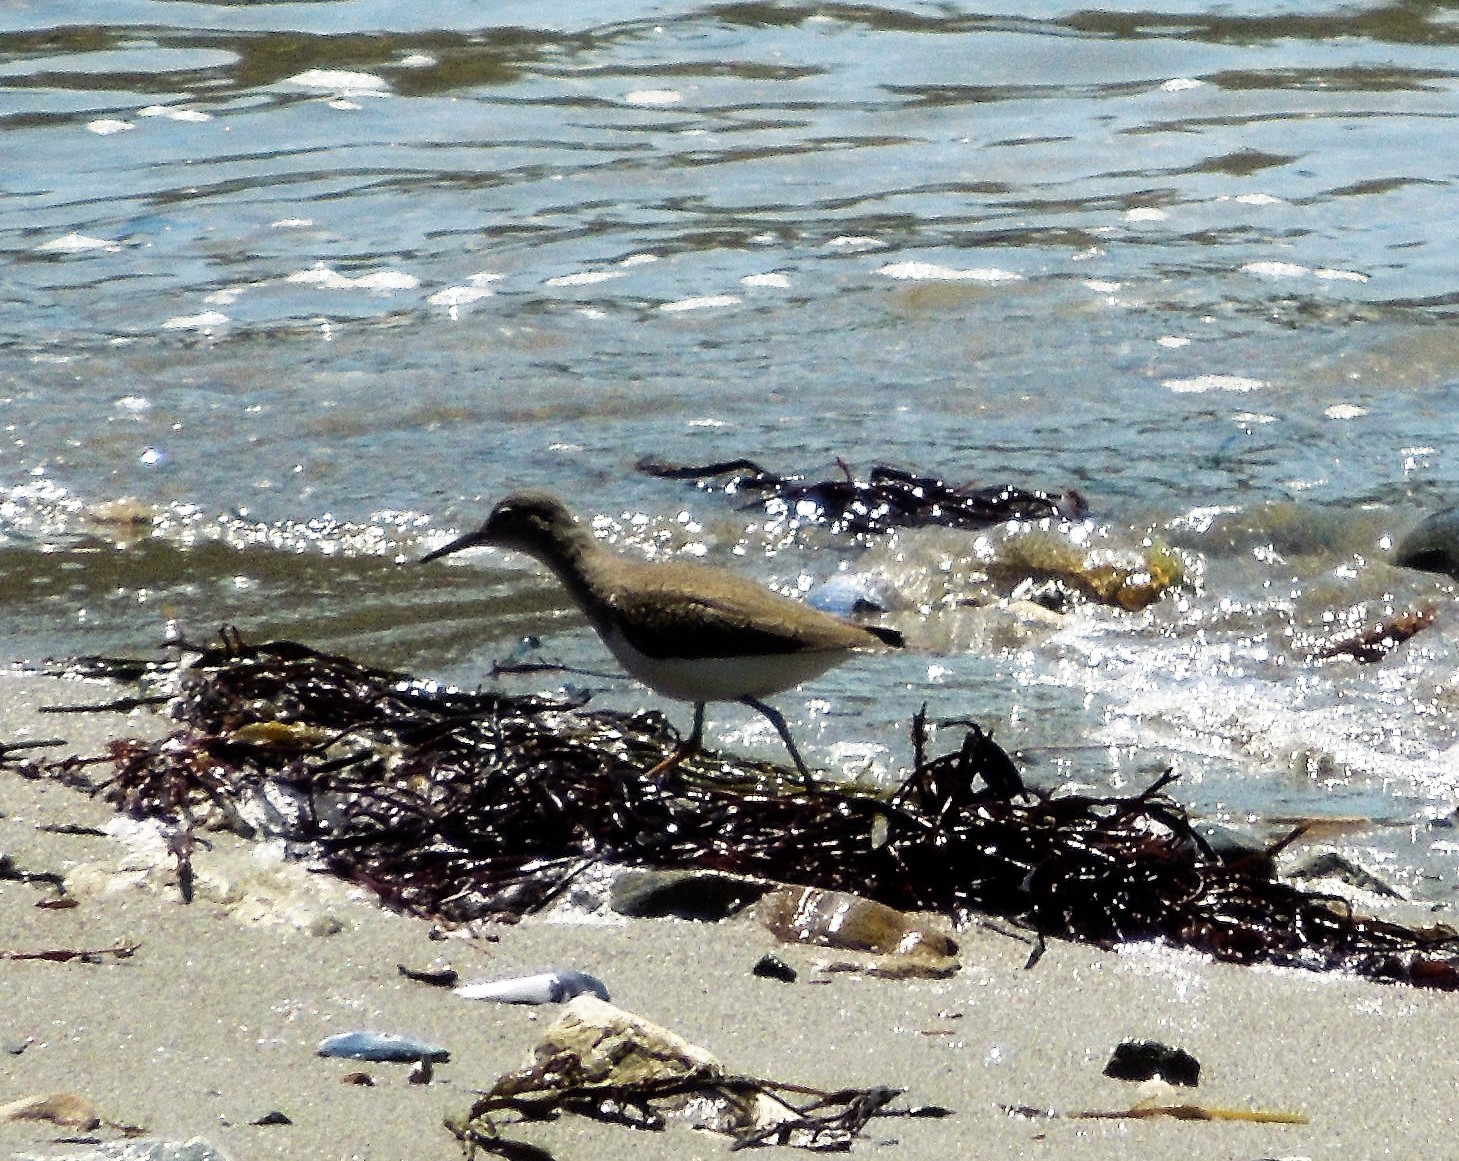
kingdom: Animalia
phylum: Chordata
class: Aves
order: Charadriiformes
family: Scolopacidae
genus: Actitis
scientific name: Actitis macularius
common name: Spotted sandpiper
